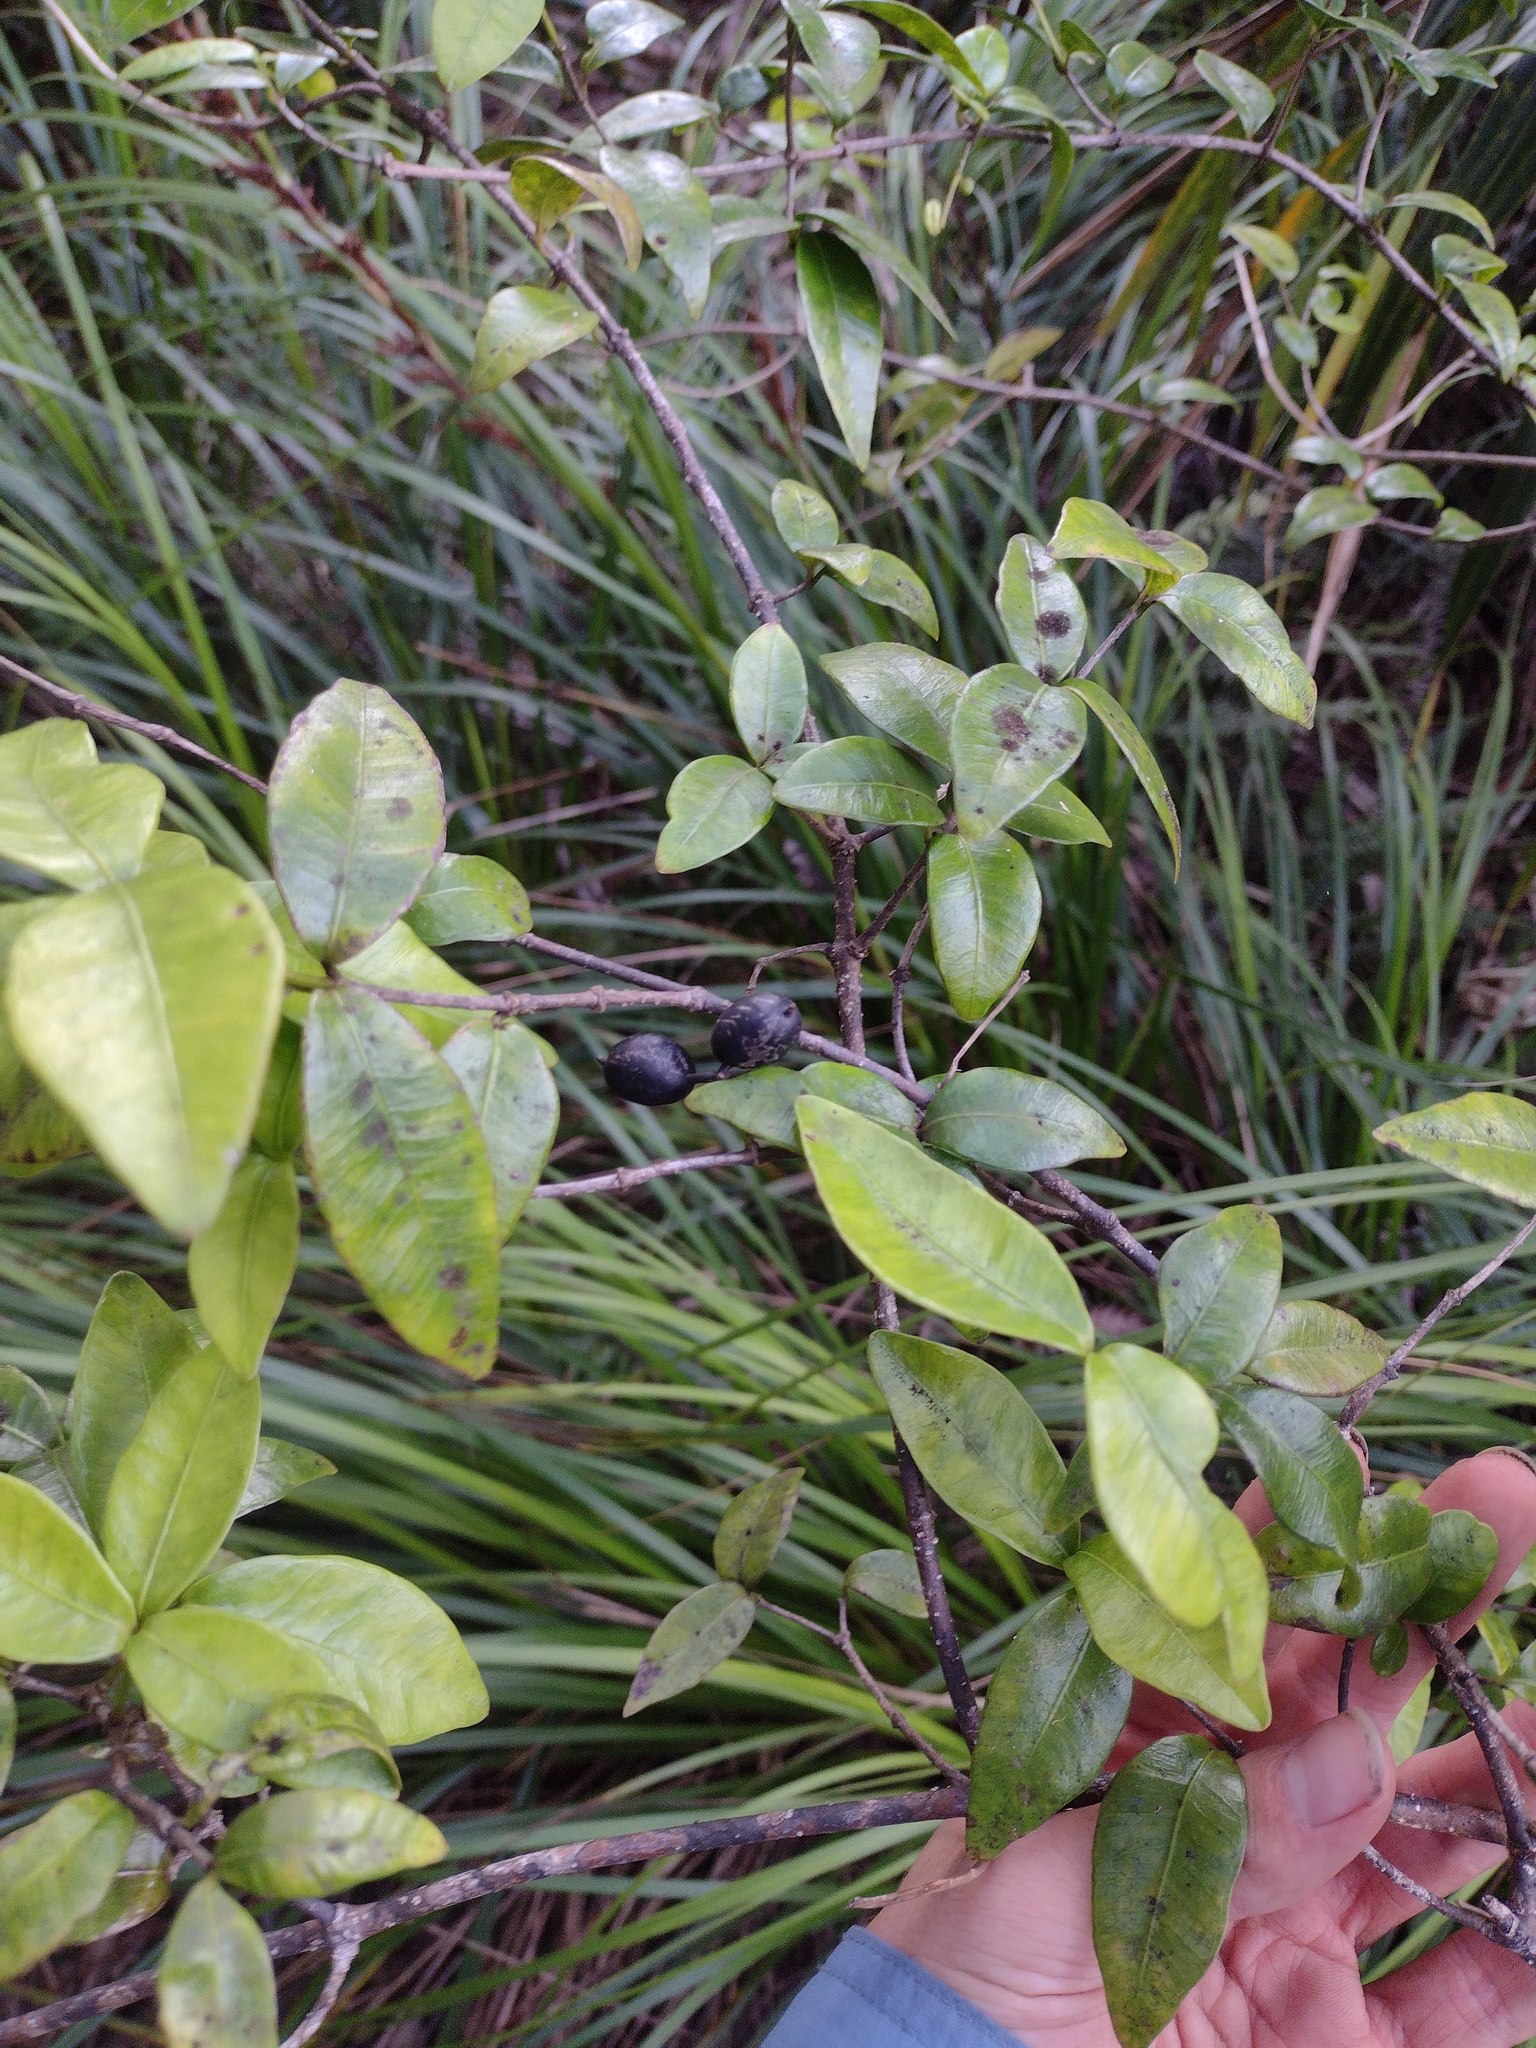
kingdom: Plantae
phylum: Tracheophyta
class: Magnoliopsida
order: Gentianales
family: Apocynaceae
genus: Alyxia
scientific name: Alyxia stellata
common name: Maile
